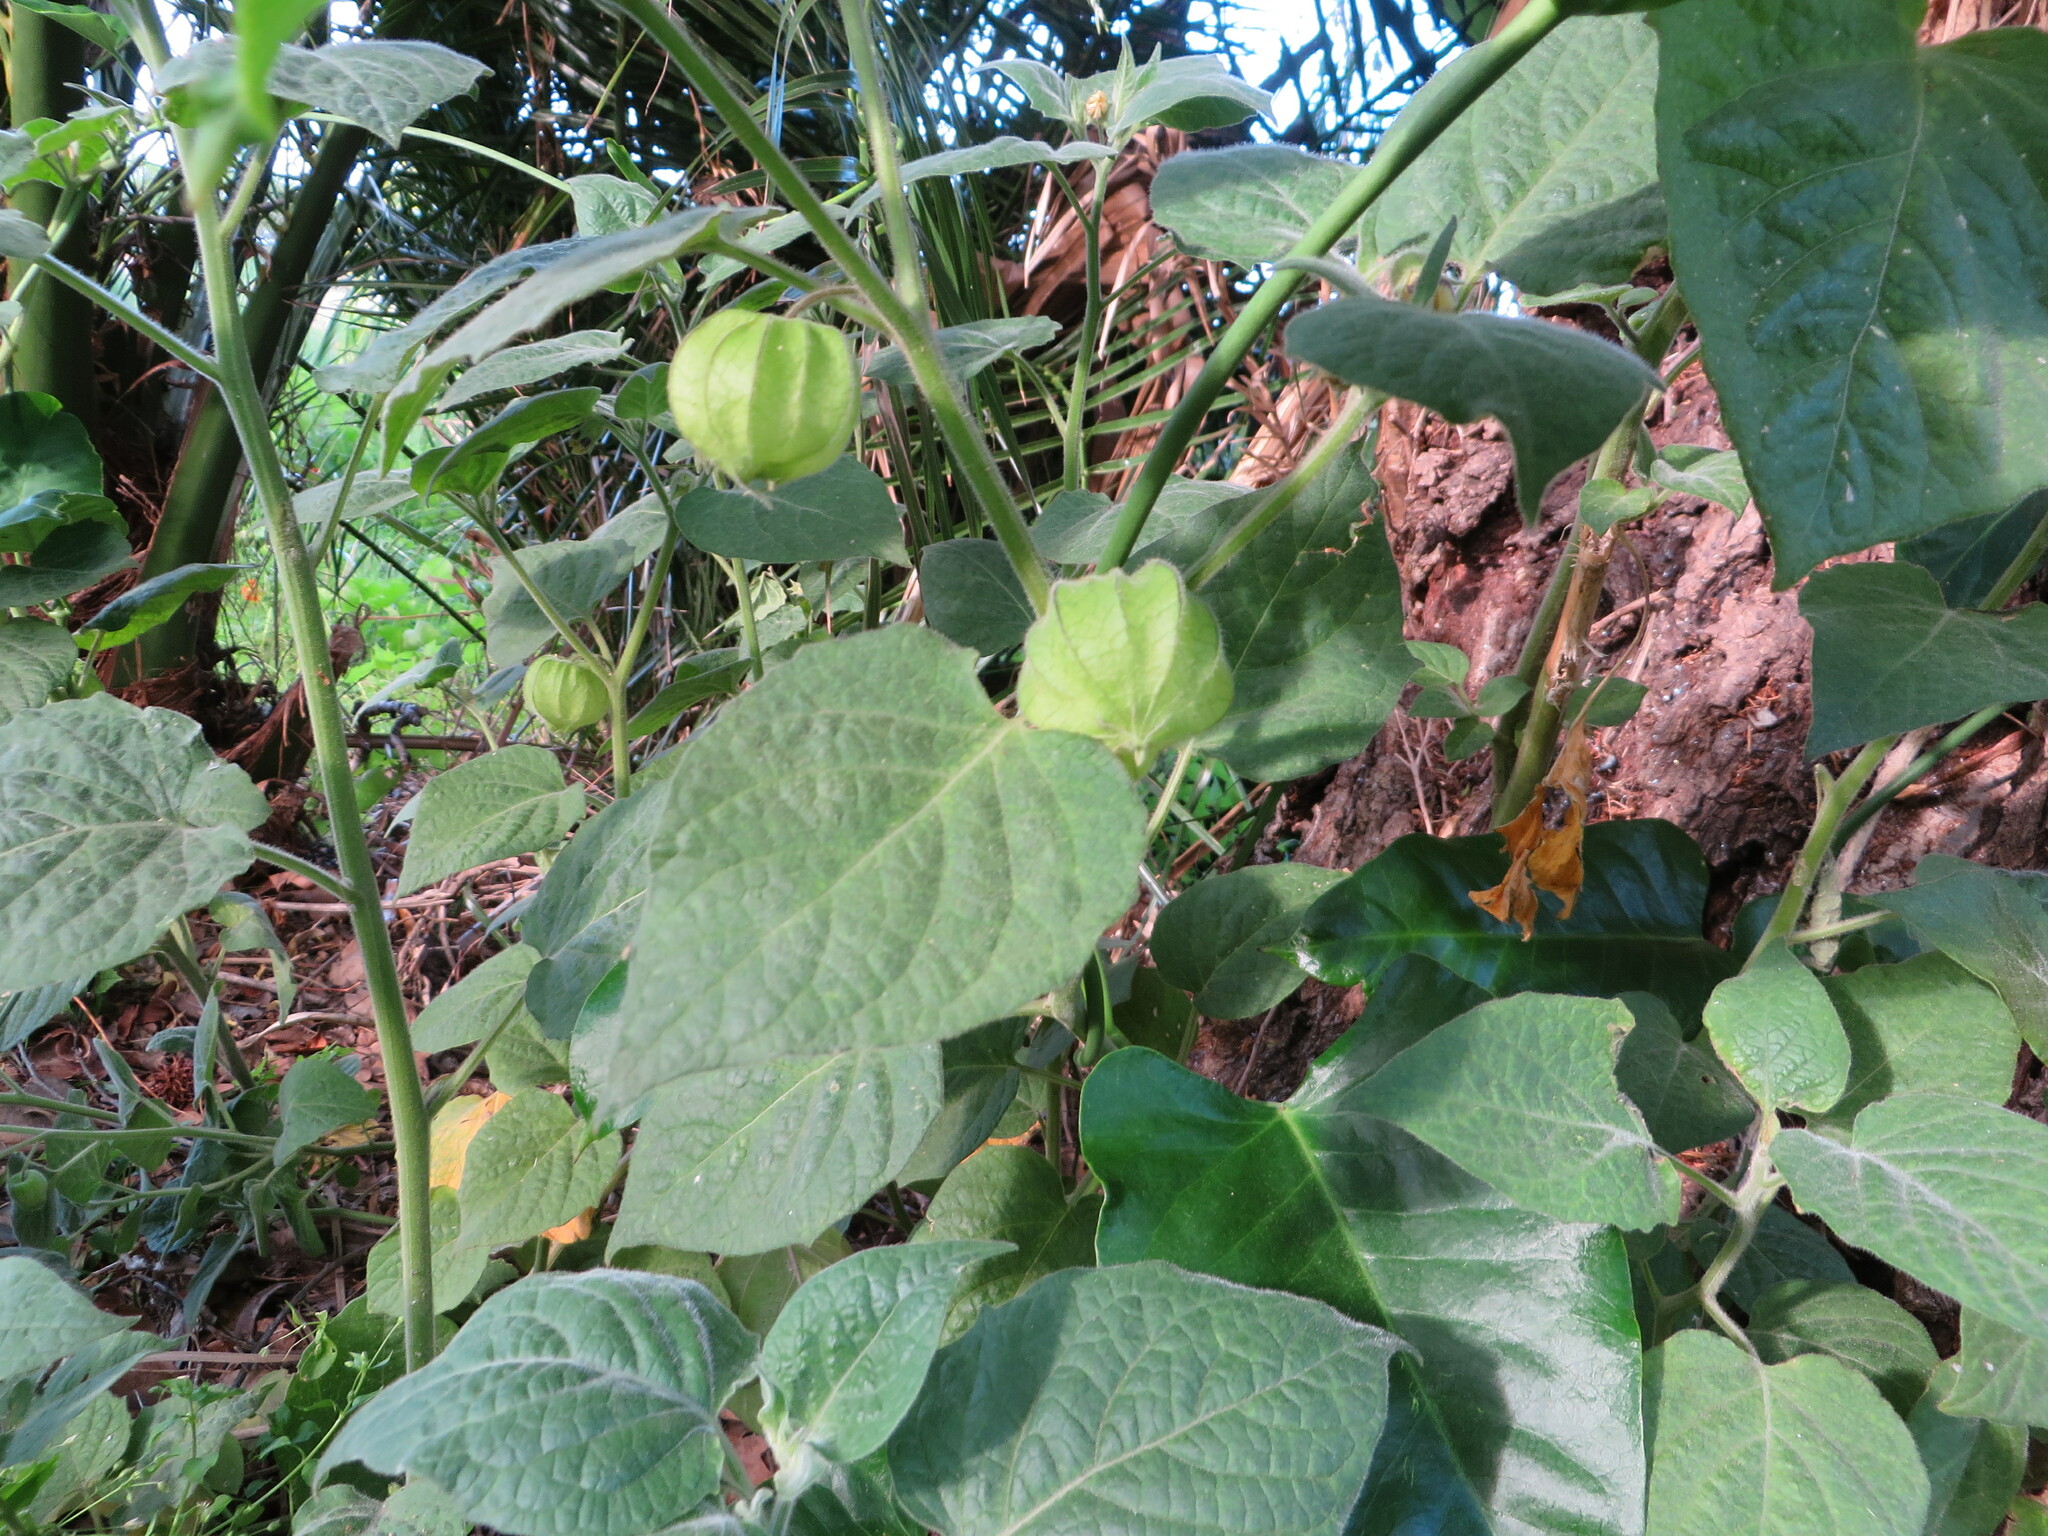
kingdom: Plantae
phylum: Tracheophyta
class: Magnoliopsida
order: Solanales
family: Solanaceae
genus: Physalis
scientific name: Physalis peruviana
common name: Cape-gooseberry
